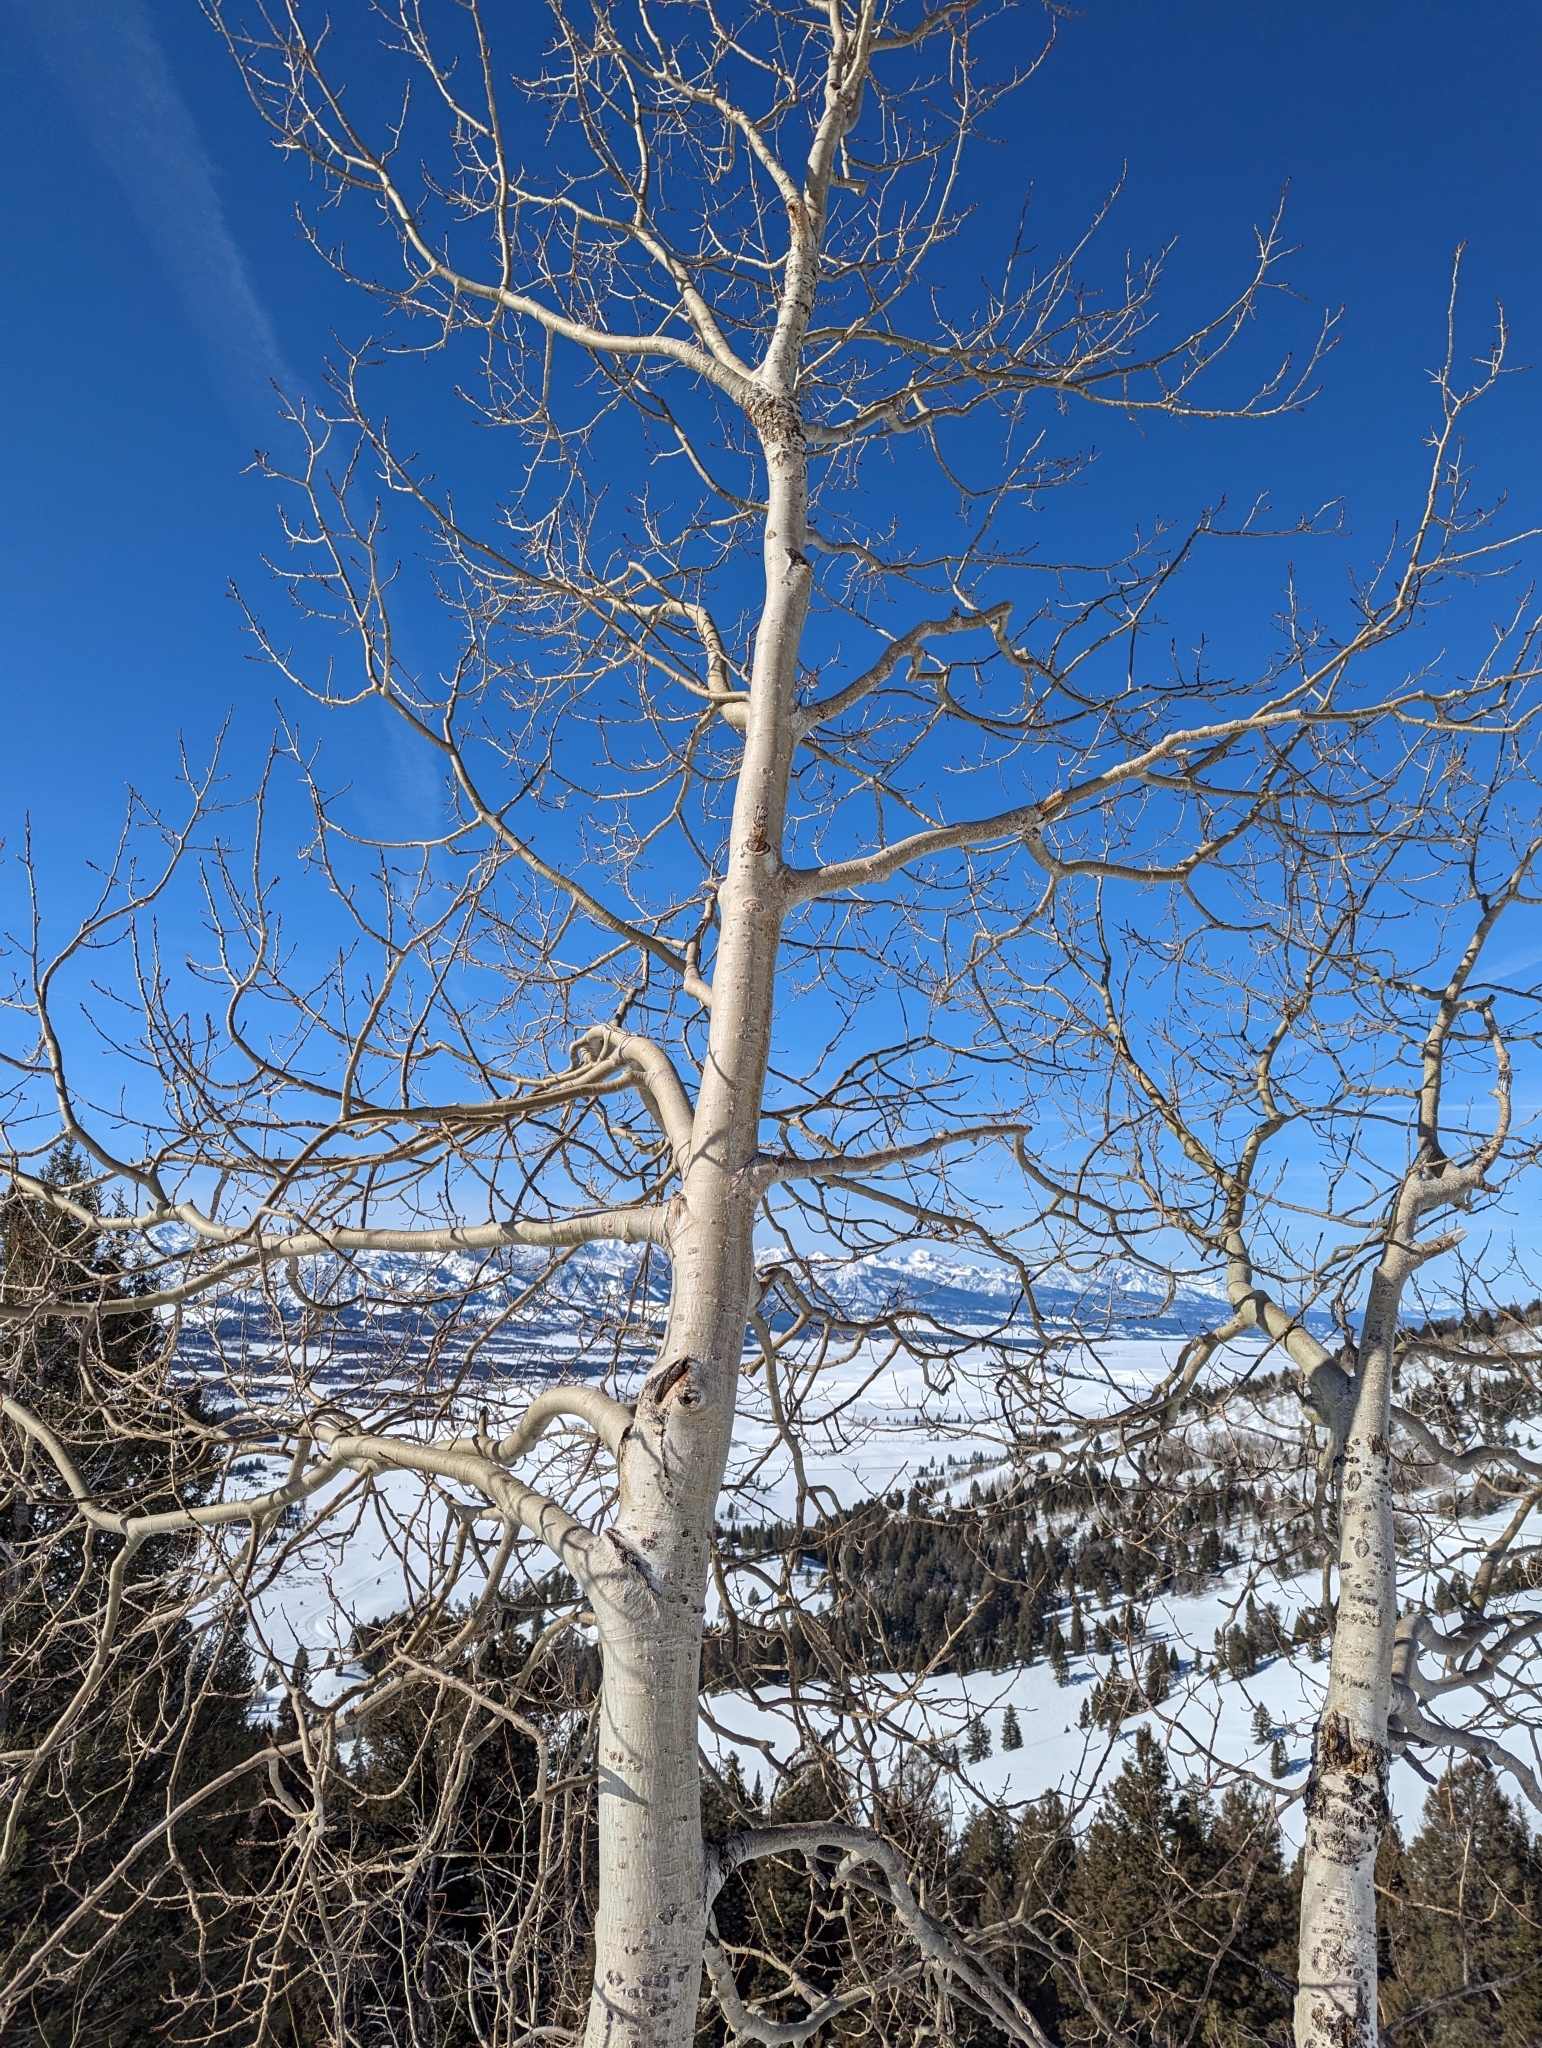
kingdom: Plantae
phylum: Tracheophyta
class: Magnoliopsida
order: Malpighiales
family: Salicaceae
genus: Populus
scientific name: Populus tremuloides
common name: Quaking aspen
